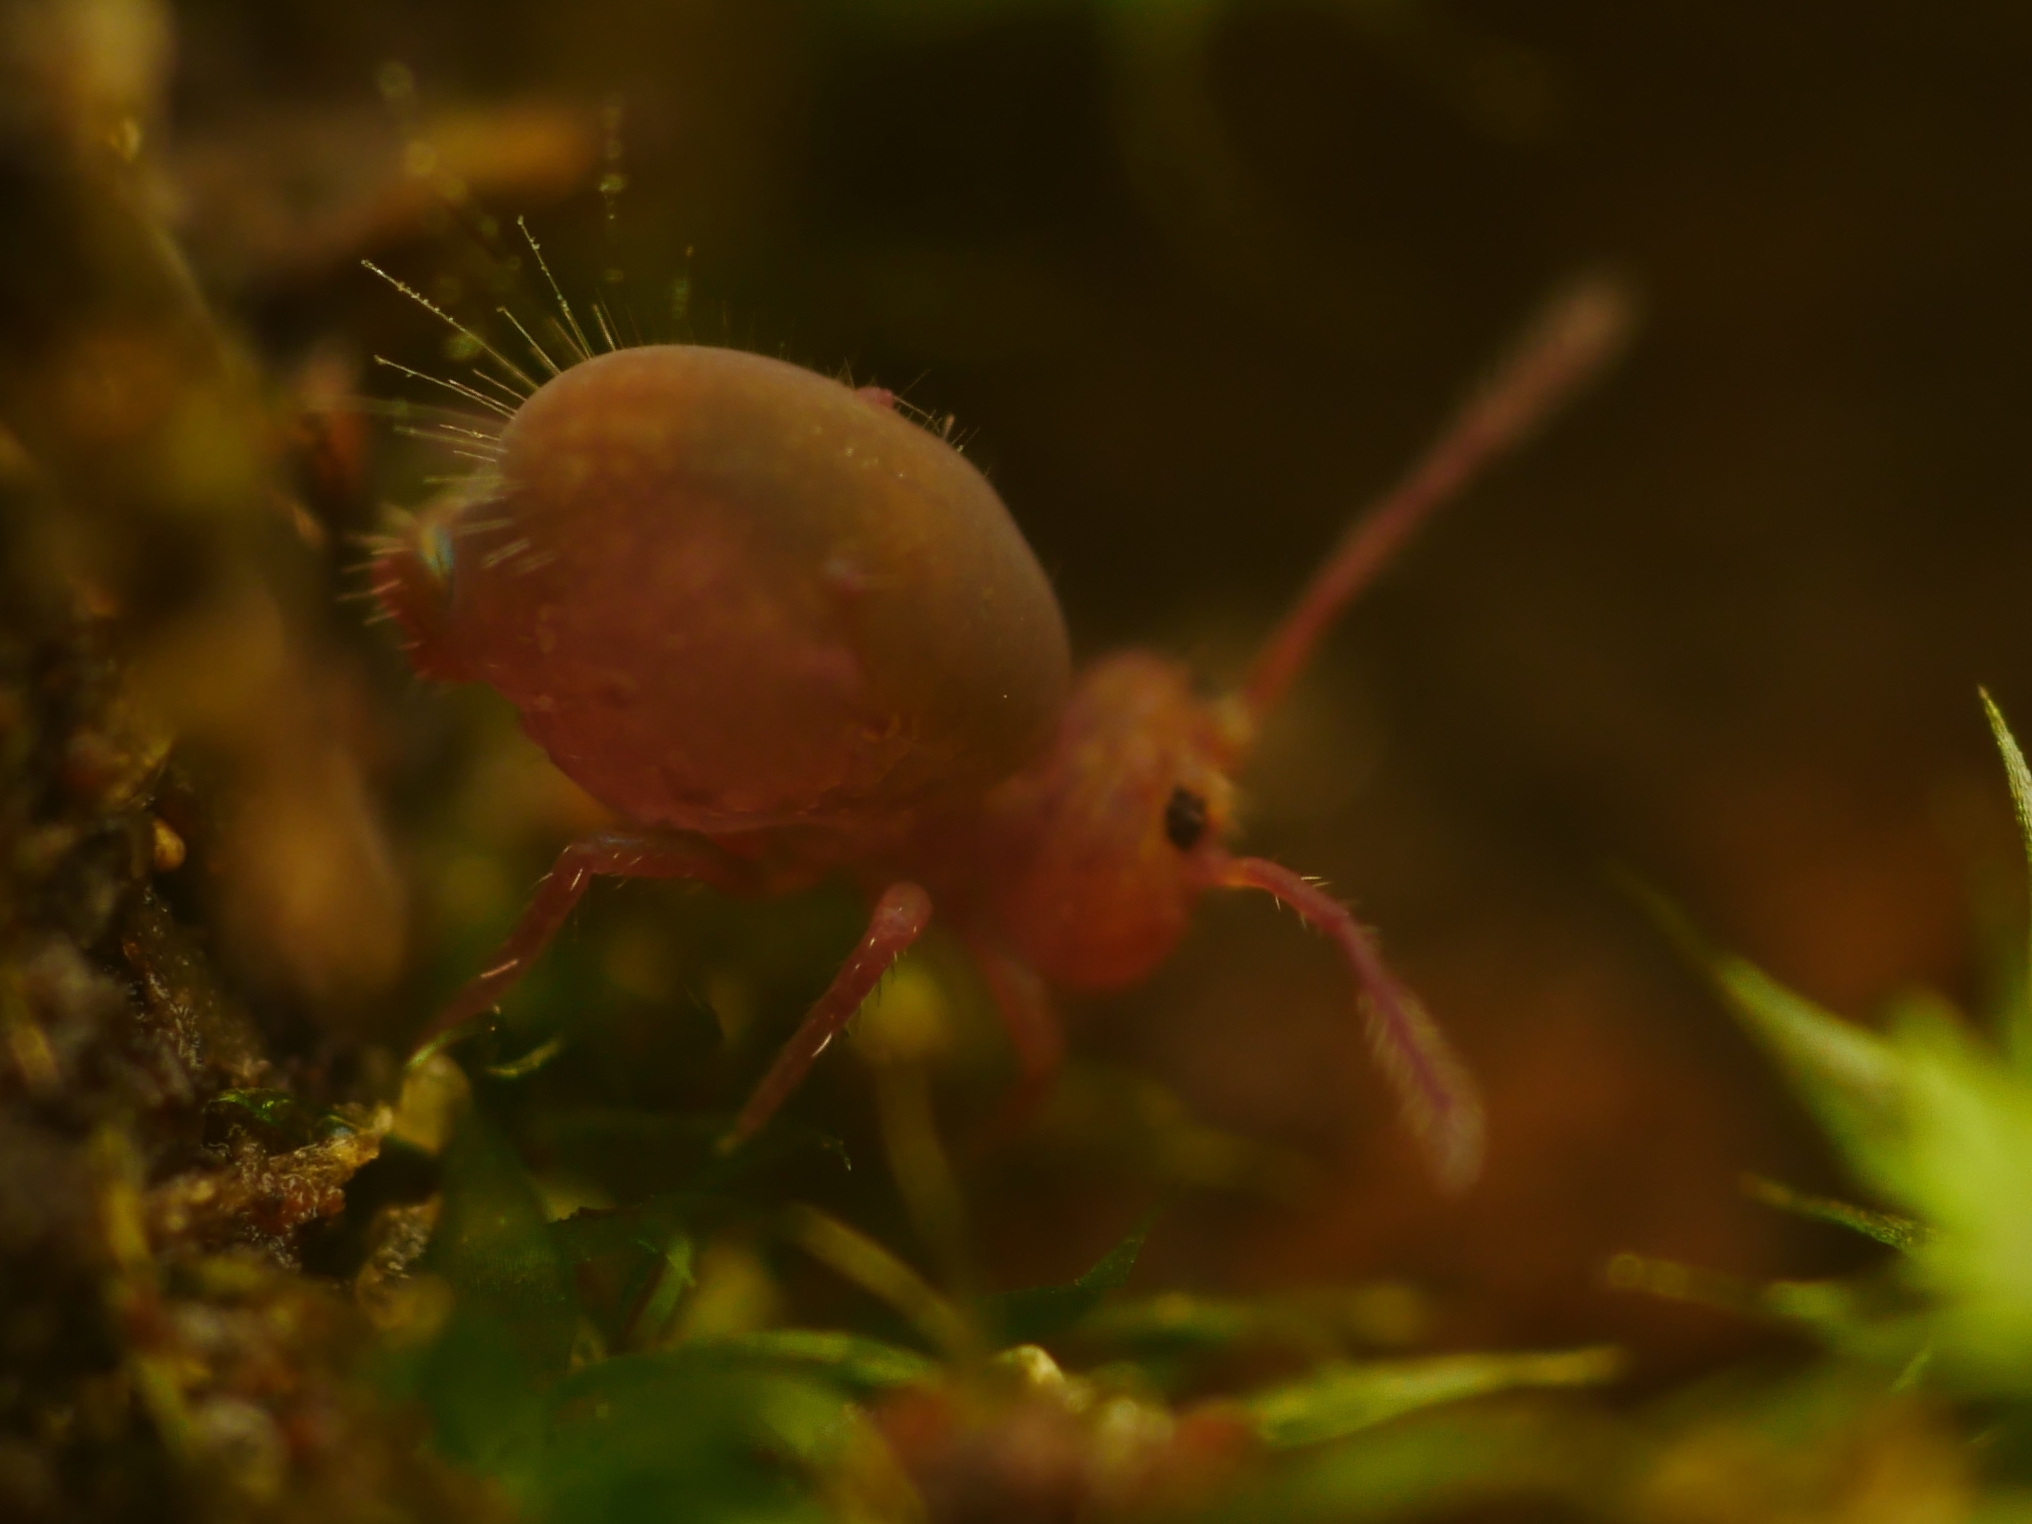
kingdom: Animalia
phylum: Arthropoda
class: Collembola
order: Symphypleona
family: Dicyrtomidae
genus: Dicyrtoma
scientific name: Dicyrtoma fusca
